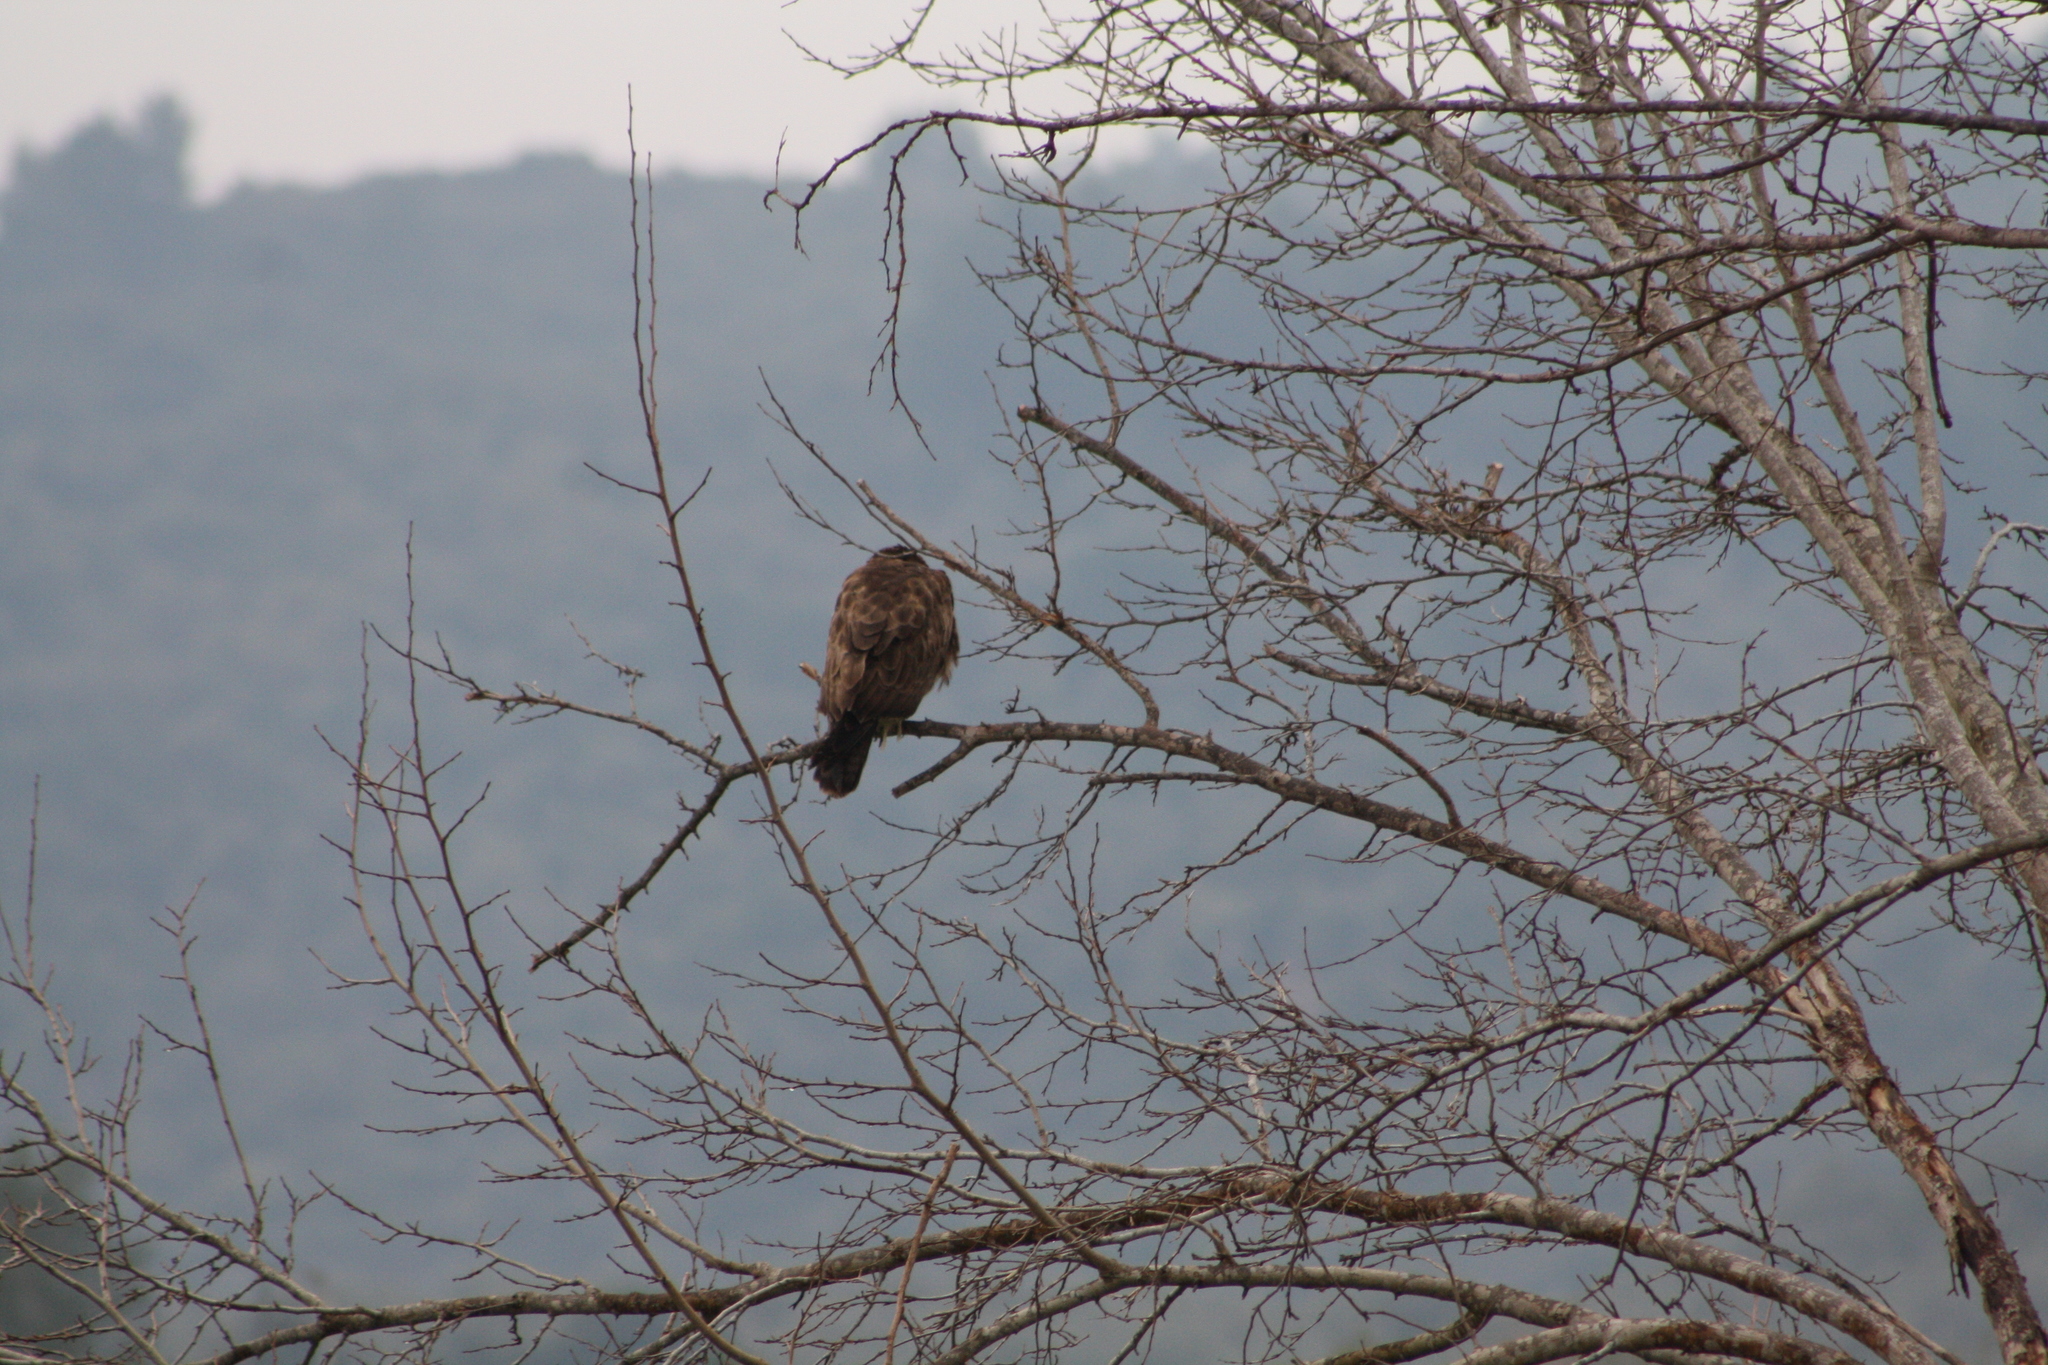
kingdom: Animalia
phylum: Chordata
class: Aves
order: Accipitriformes
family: Accipitridae
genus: Buteo
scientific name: Buteo buteo
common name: Common buzzard
